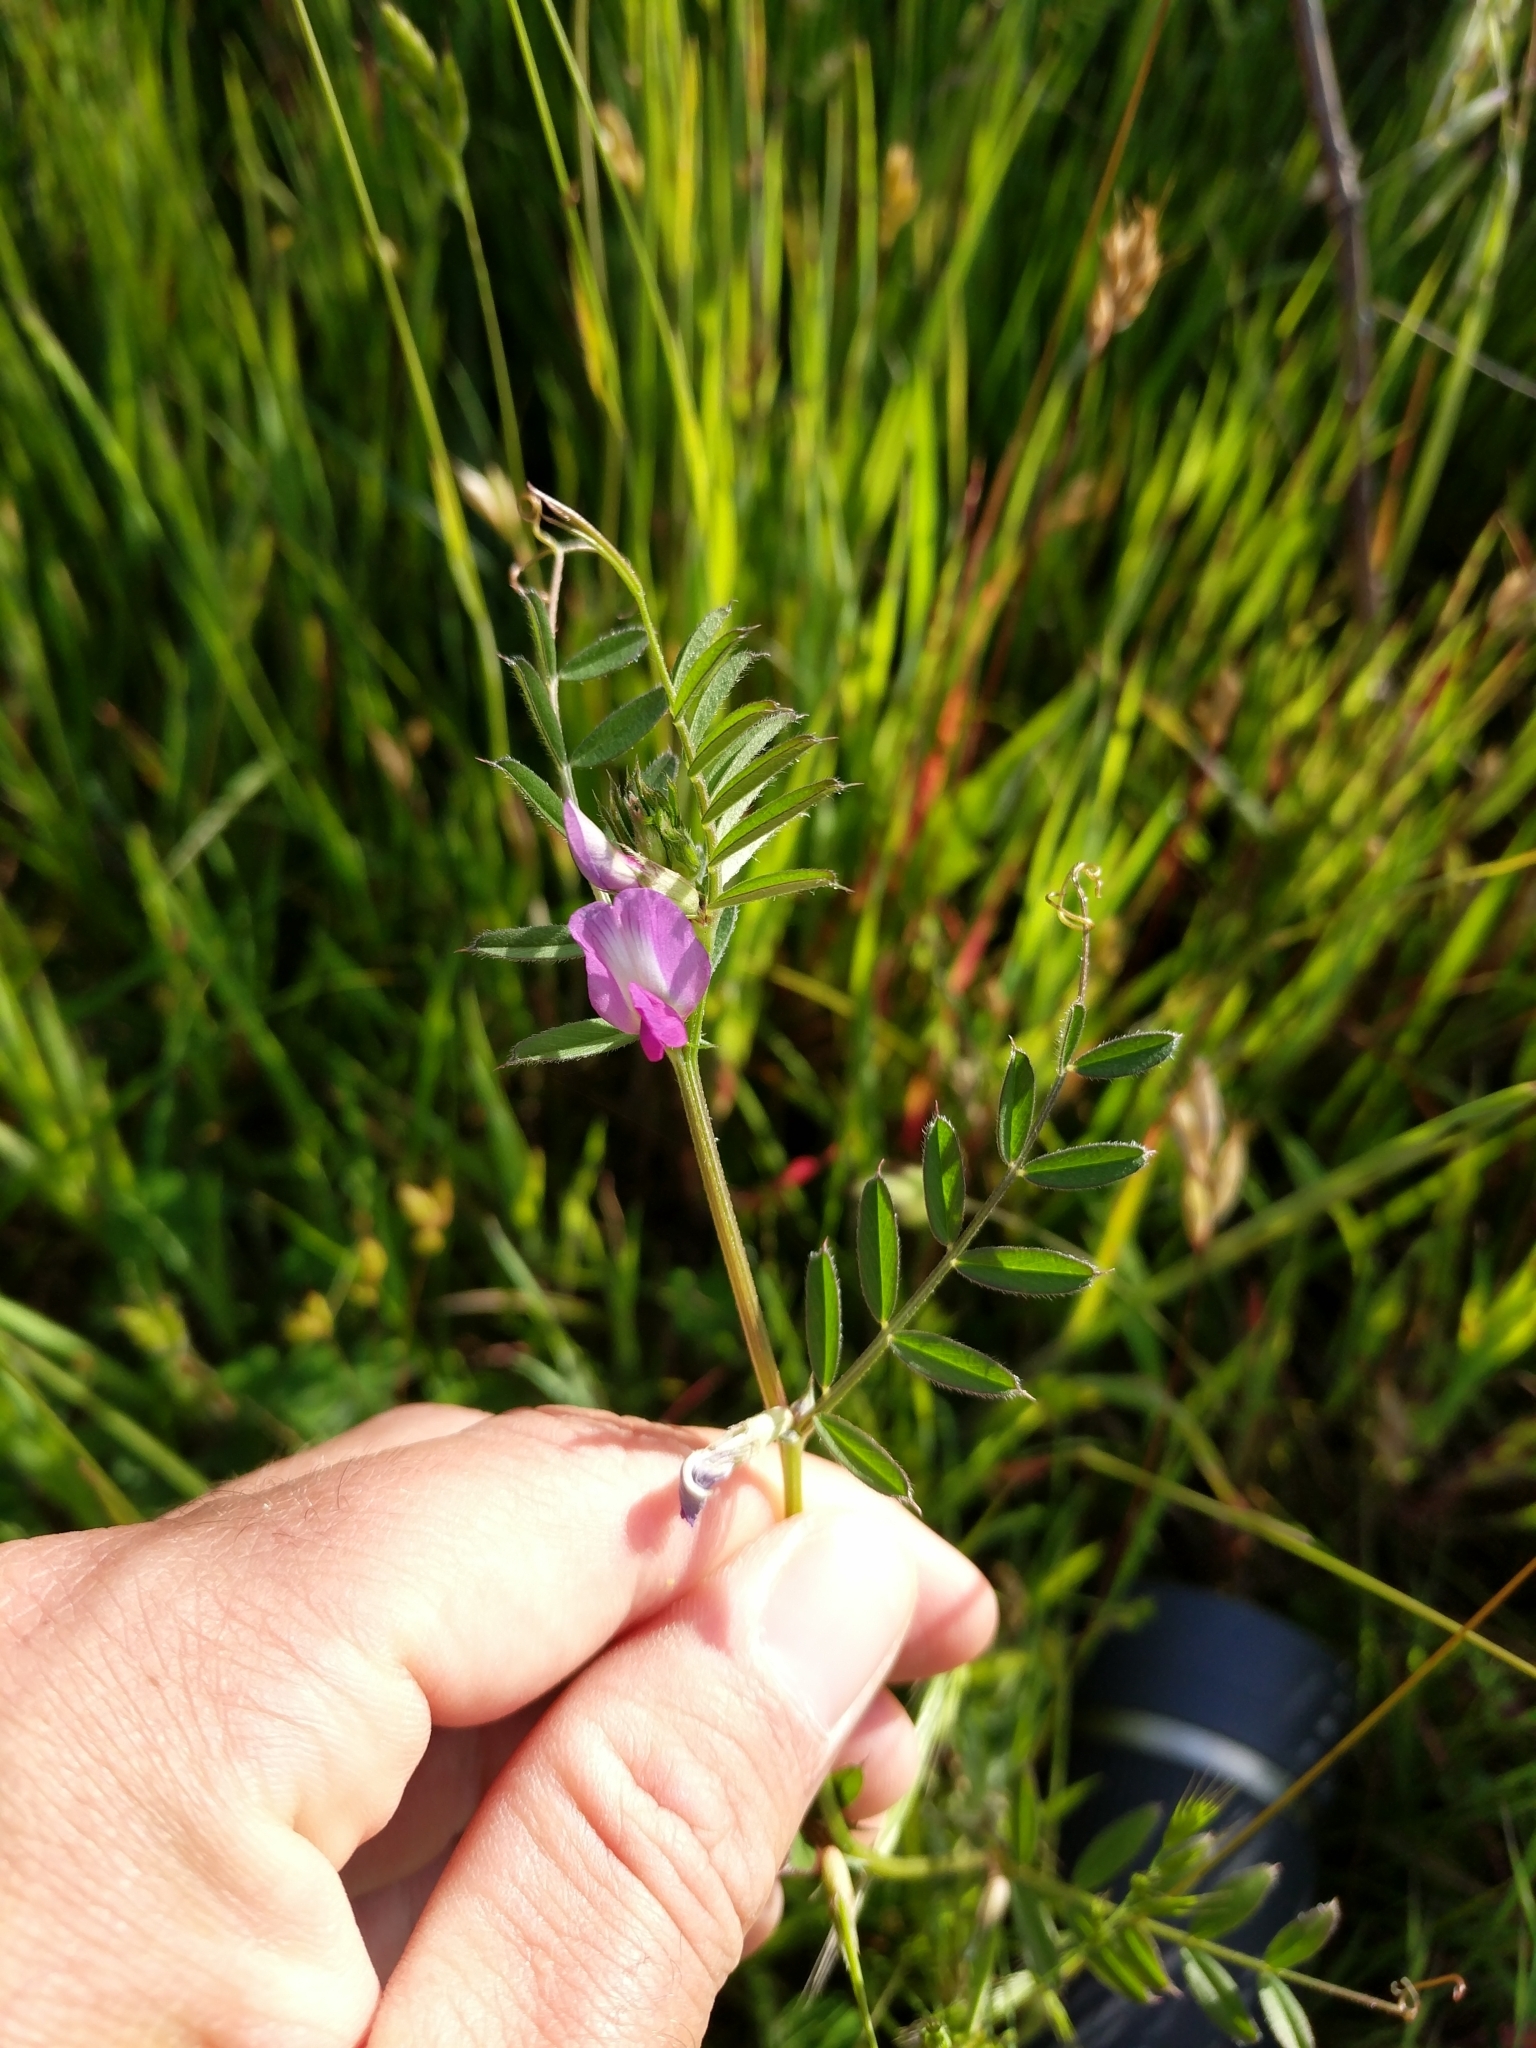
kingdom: Plantae
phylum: Tracheophyta
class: Magnoliopsida
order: Fabales
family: Fabaceae
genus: Vicia
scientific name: Vicia sativa
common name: Garden vetch
